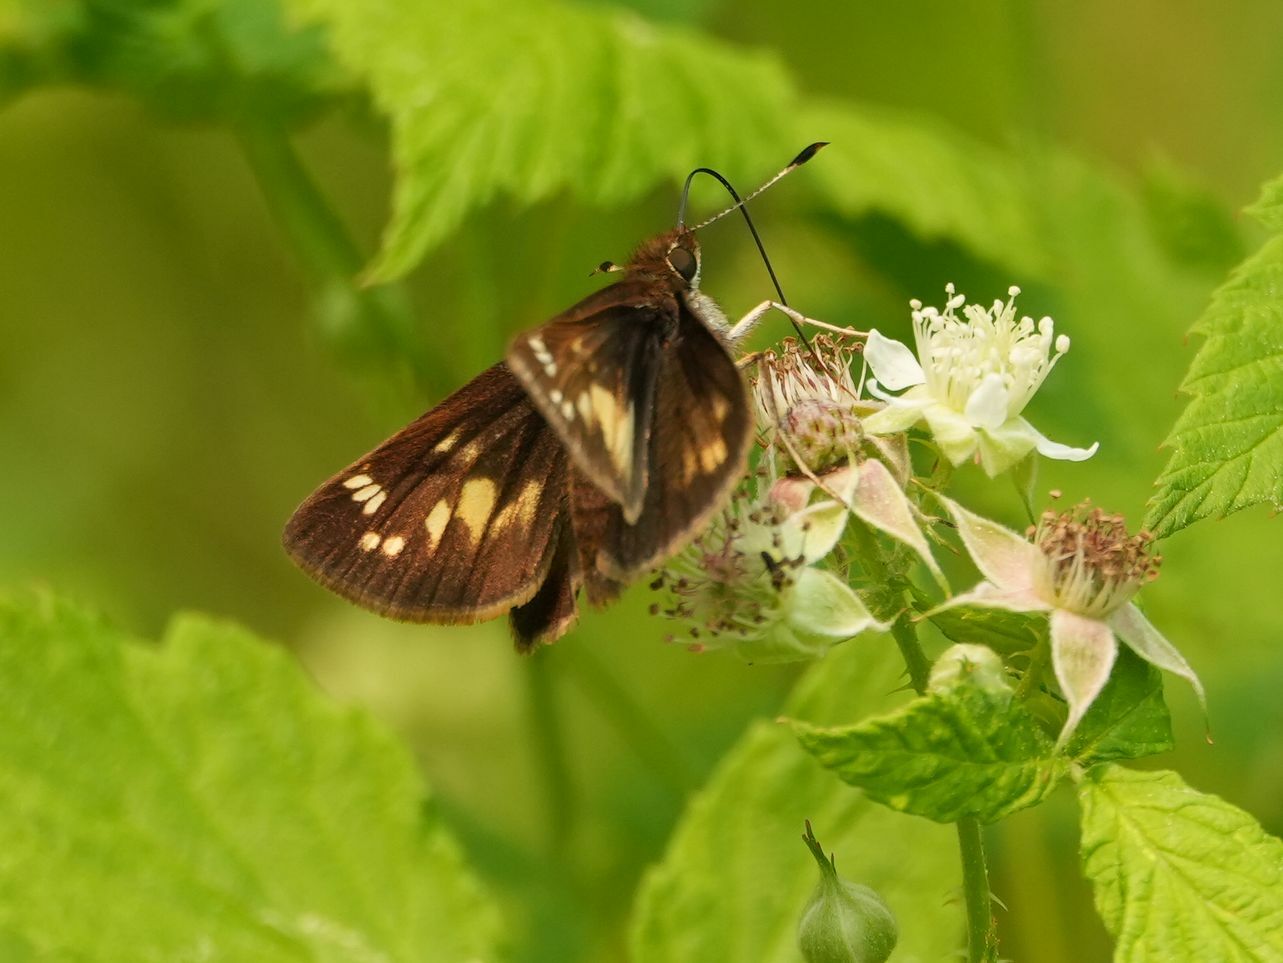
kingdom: Animalia
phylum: Arthropoda
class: Insecta
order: Lepidoptera
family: Hesperiidae
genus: Lon
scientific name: Lon hobomok
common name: Hobomok skipper
